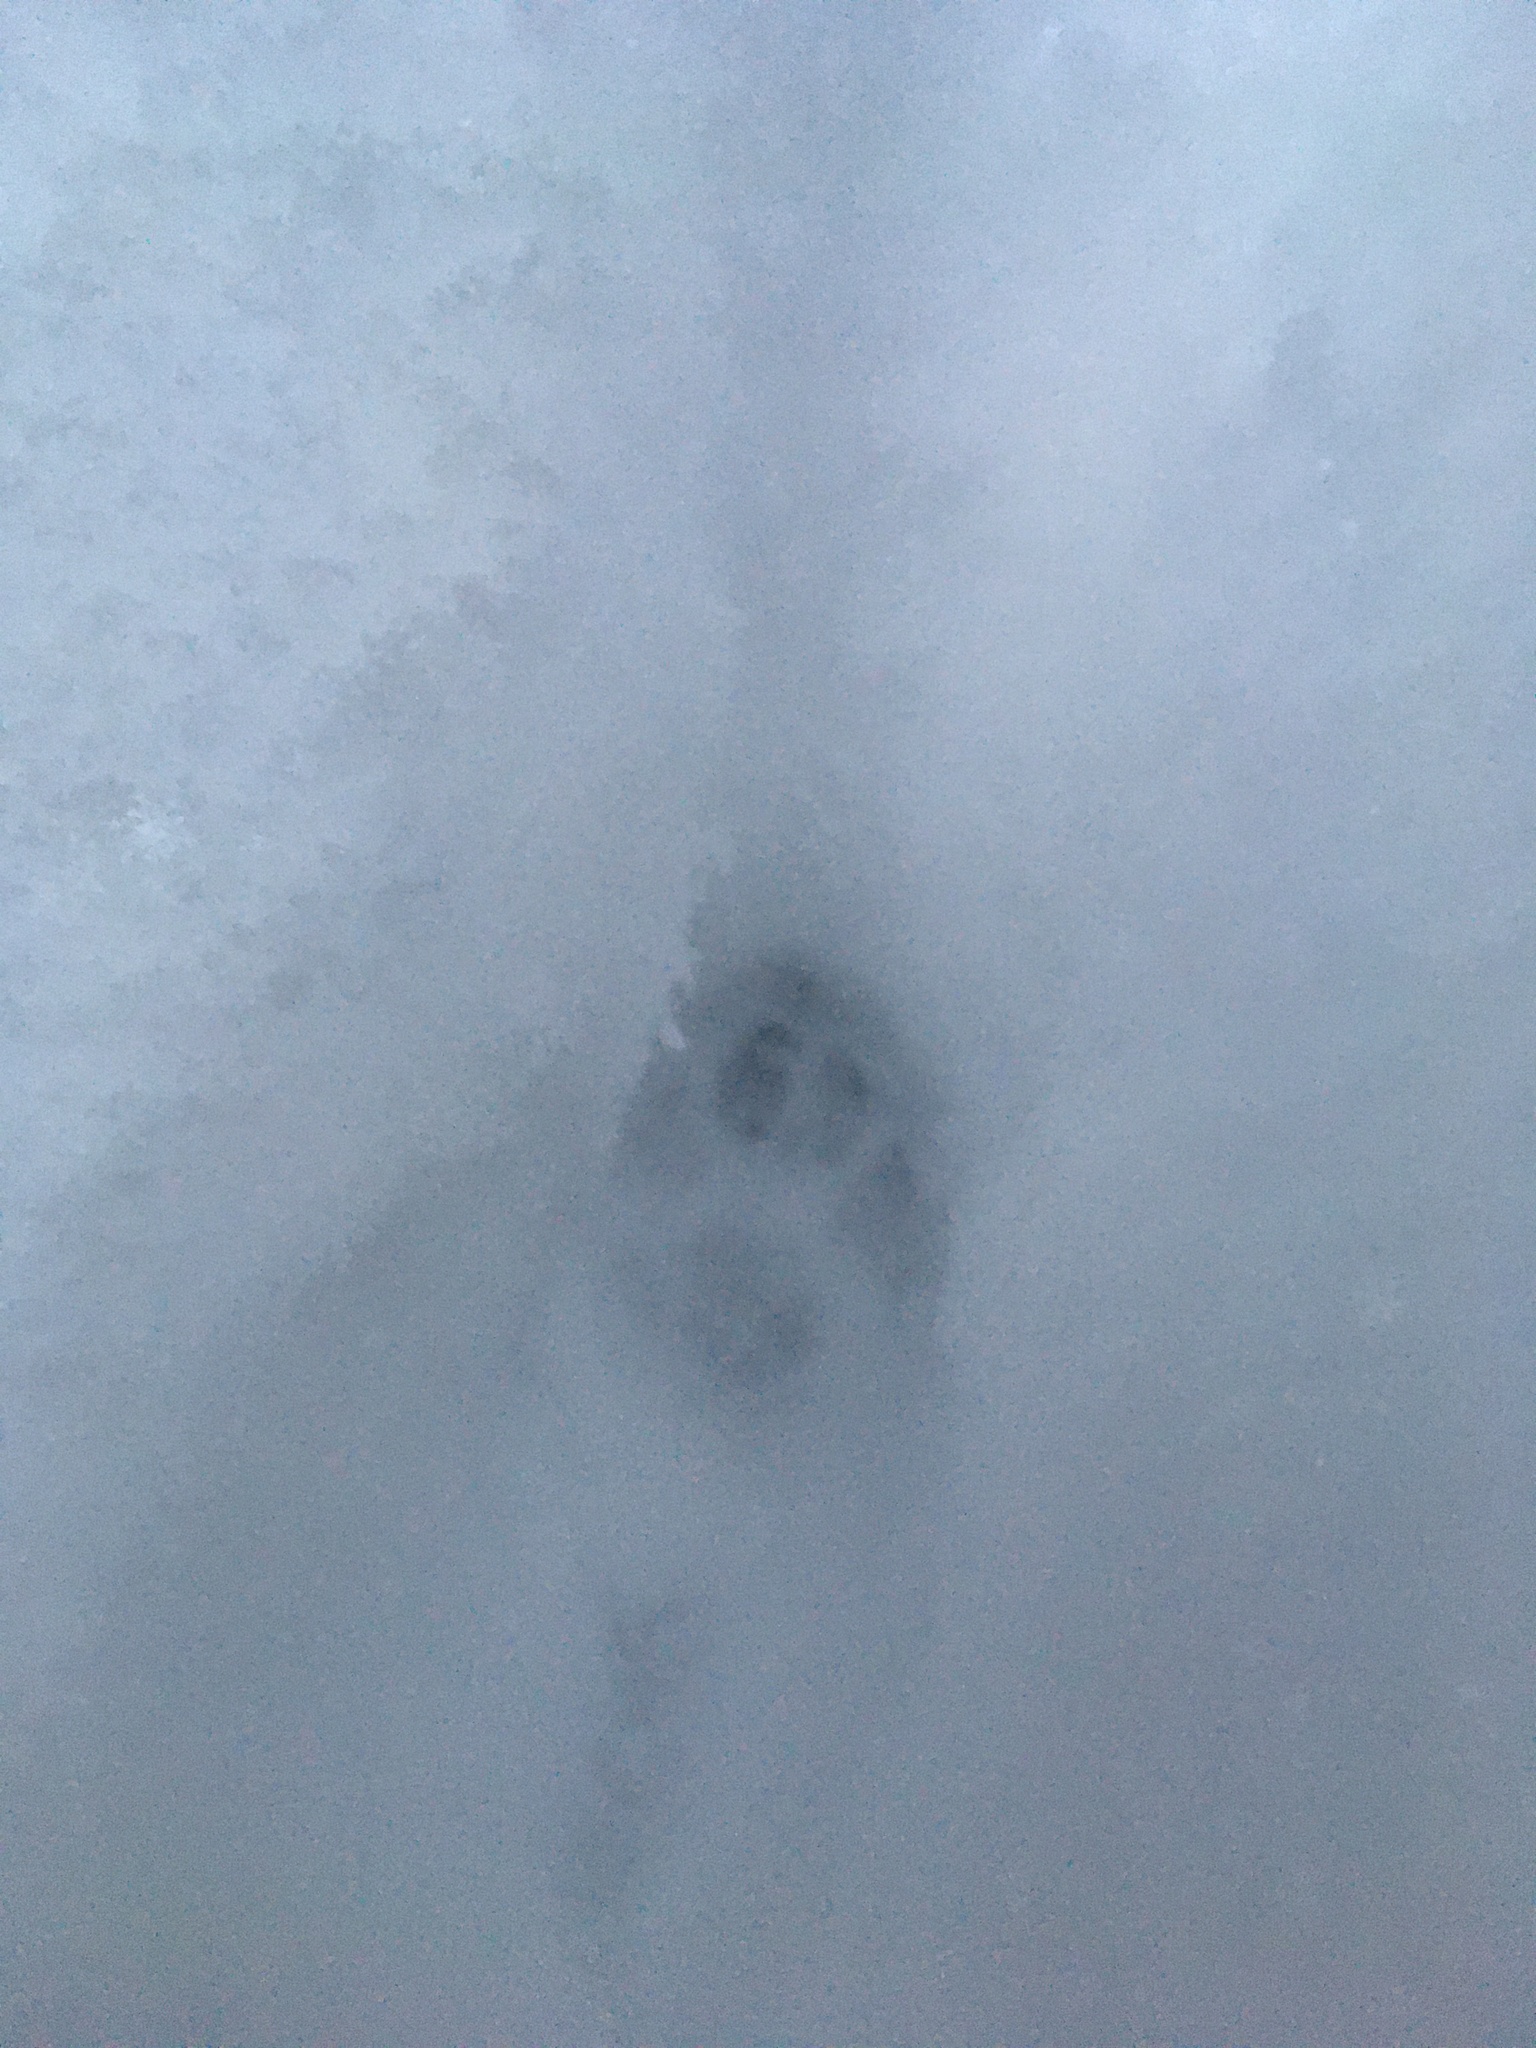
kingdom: Animalia
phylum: Chordata
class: Mammalia
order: Carnivora
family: Felidae
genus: Felis
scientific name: Felis catus
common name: Domestic cat
